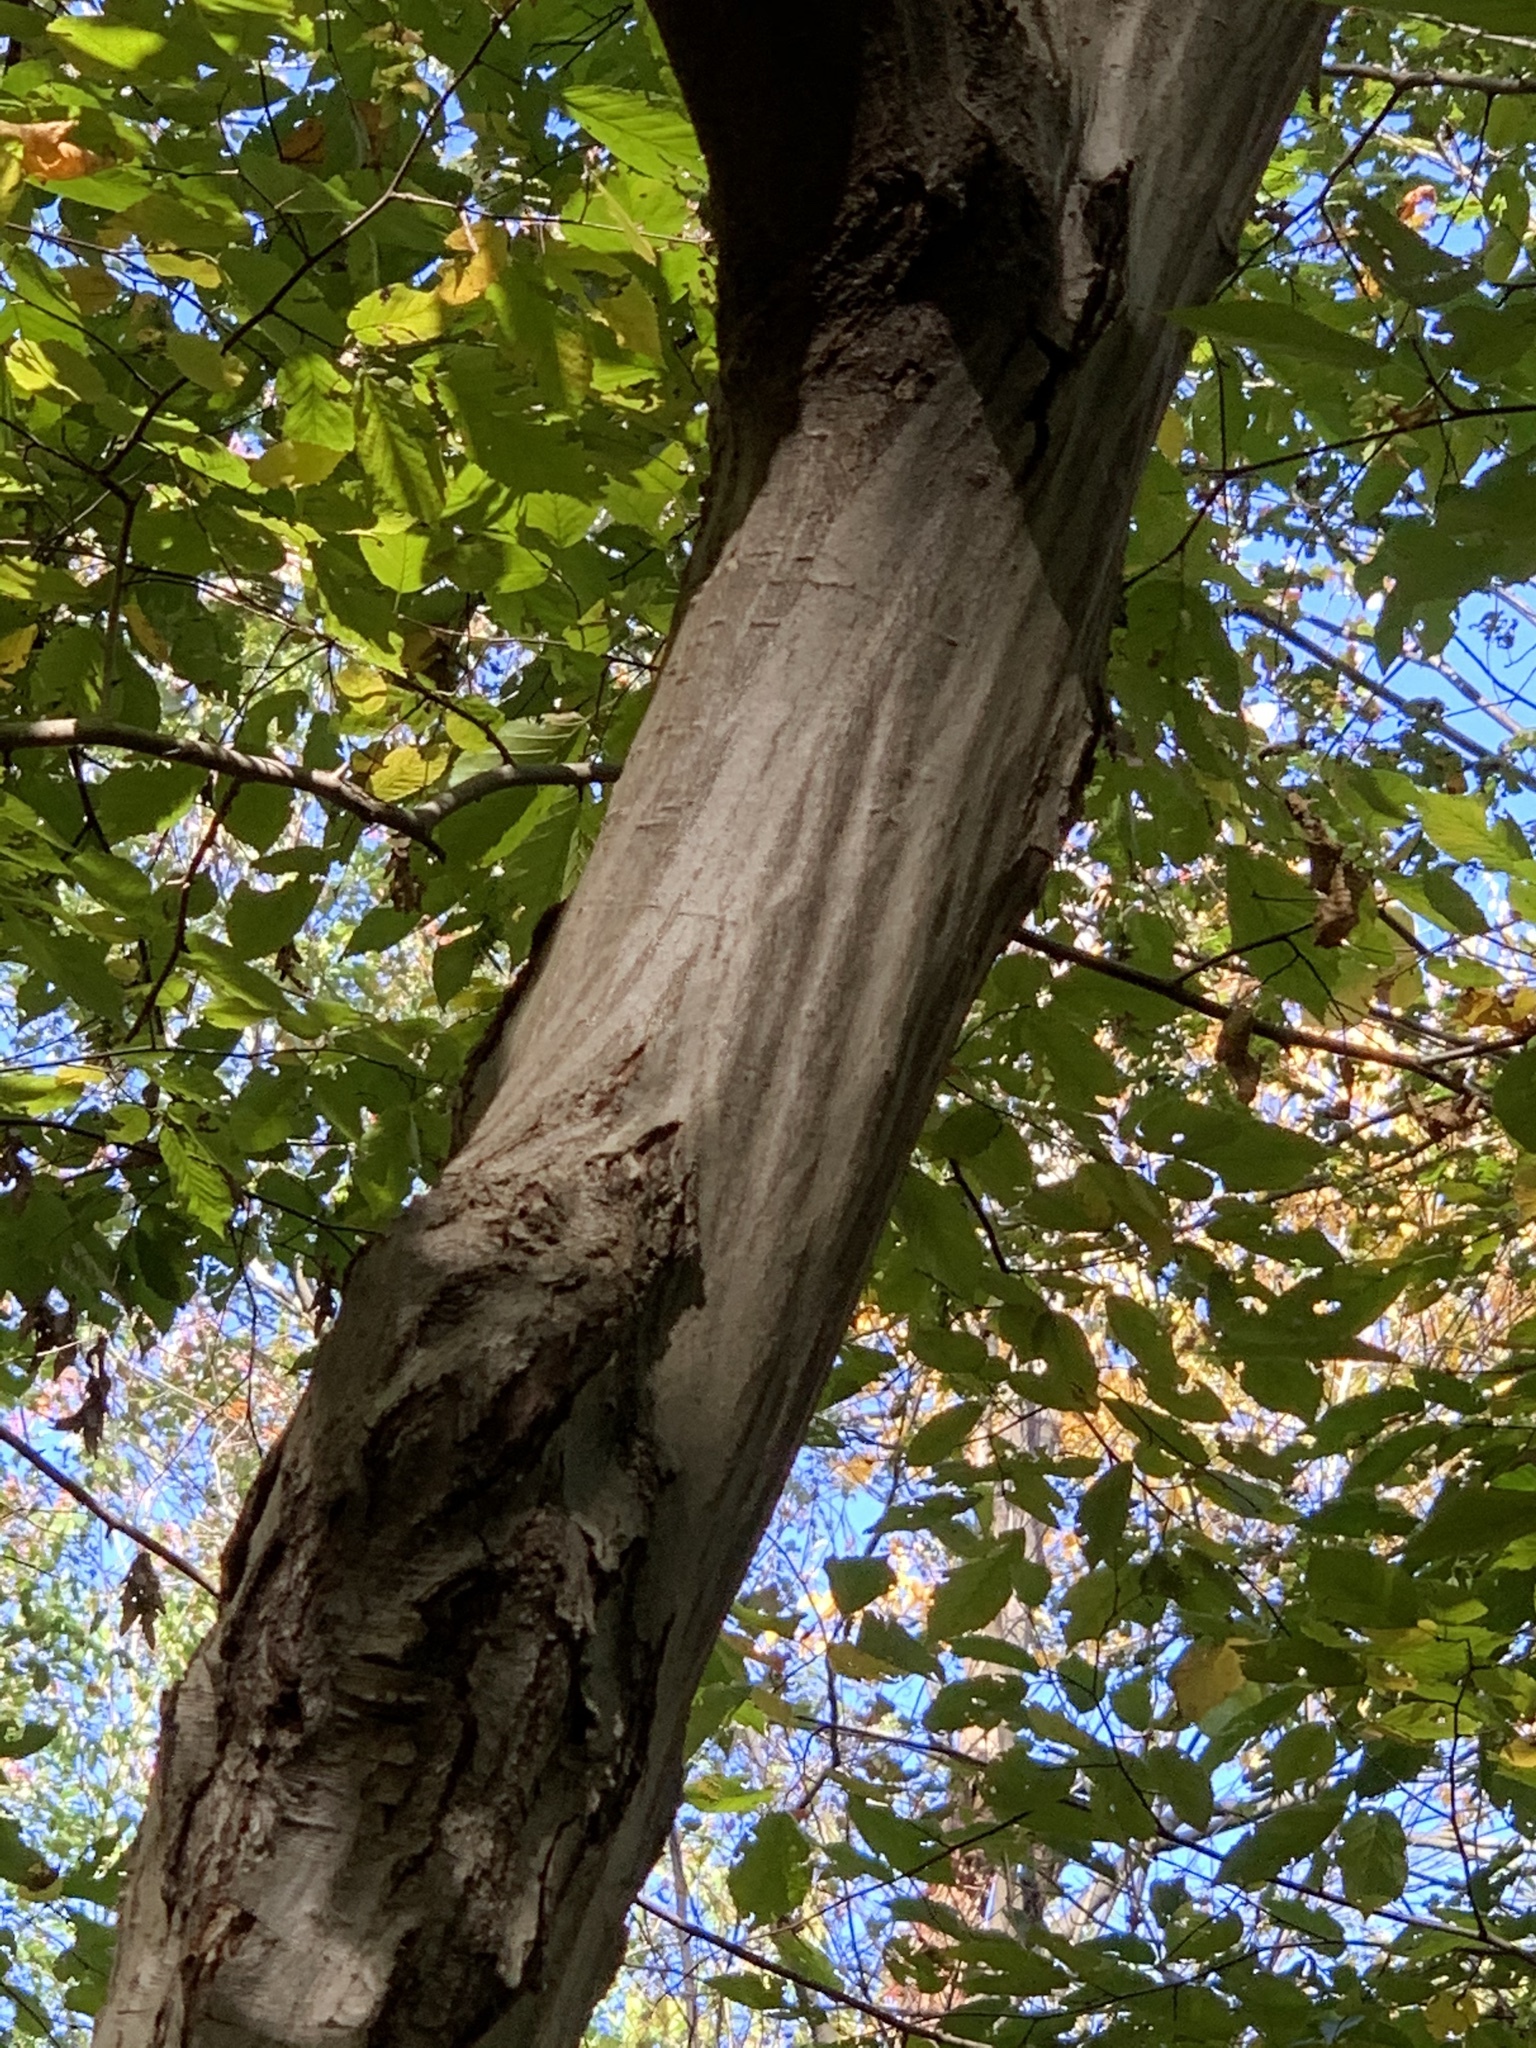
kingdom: Plantae
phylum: Tracheophyta
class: Magnoliopsida
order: Fagales
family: Betulaceae
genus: Carpinus
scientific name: Carpinus caroliniana
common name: American hornbeam
